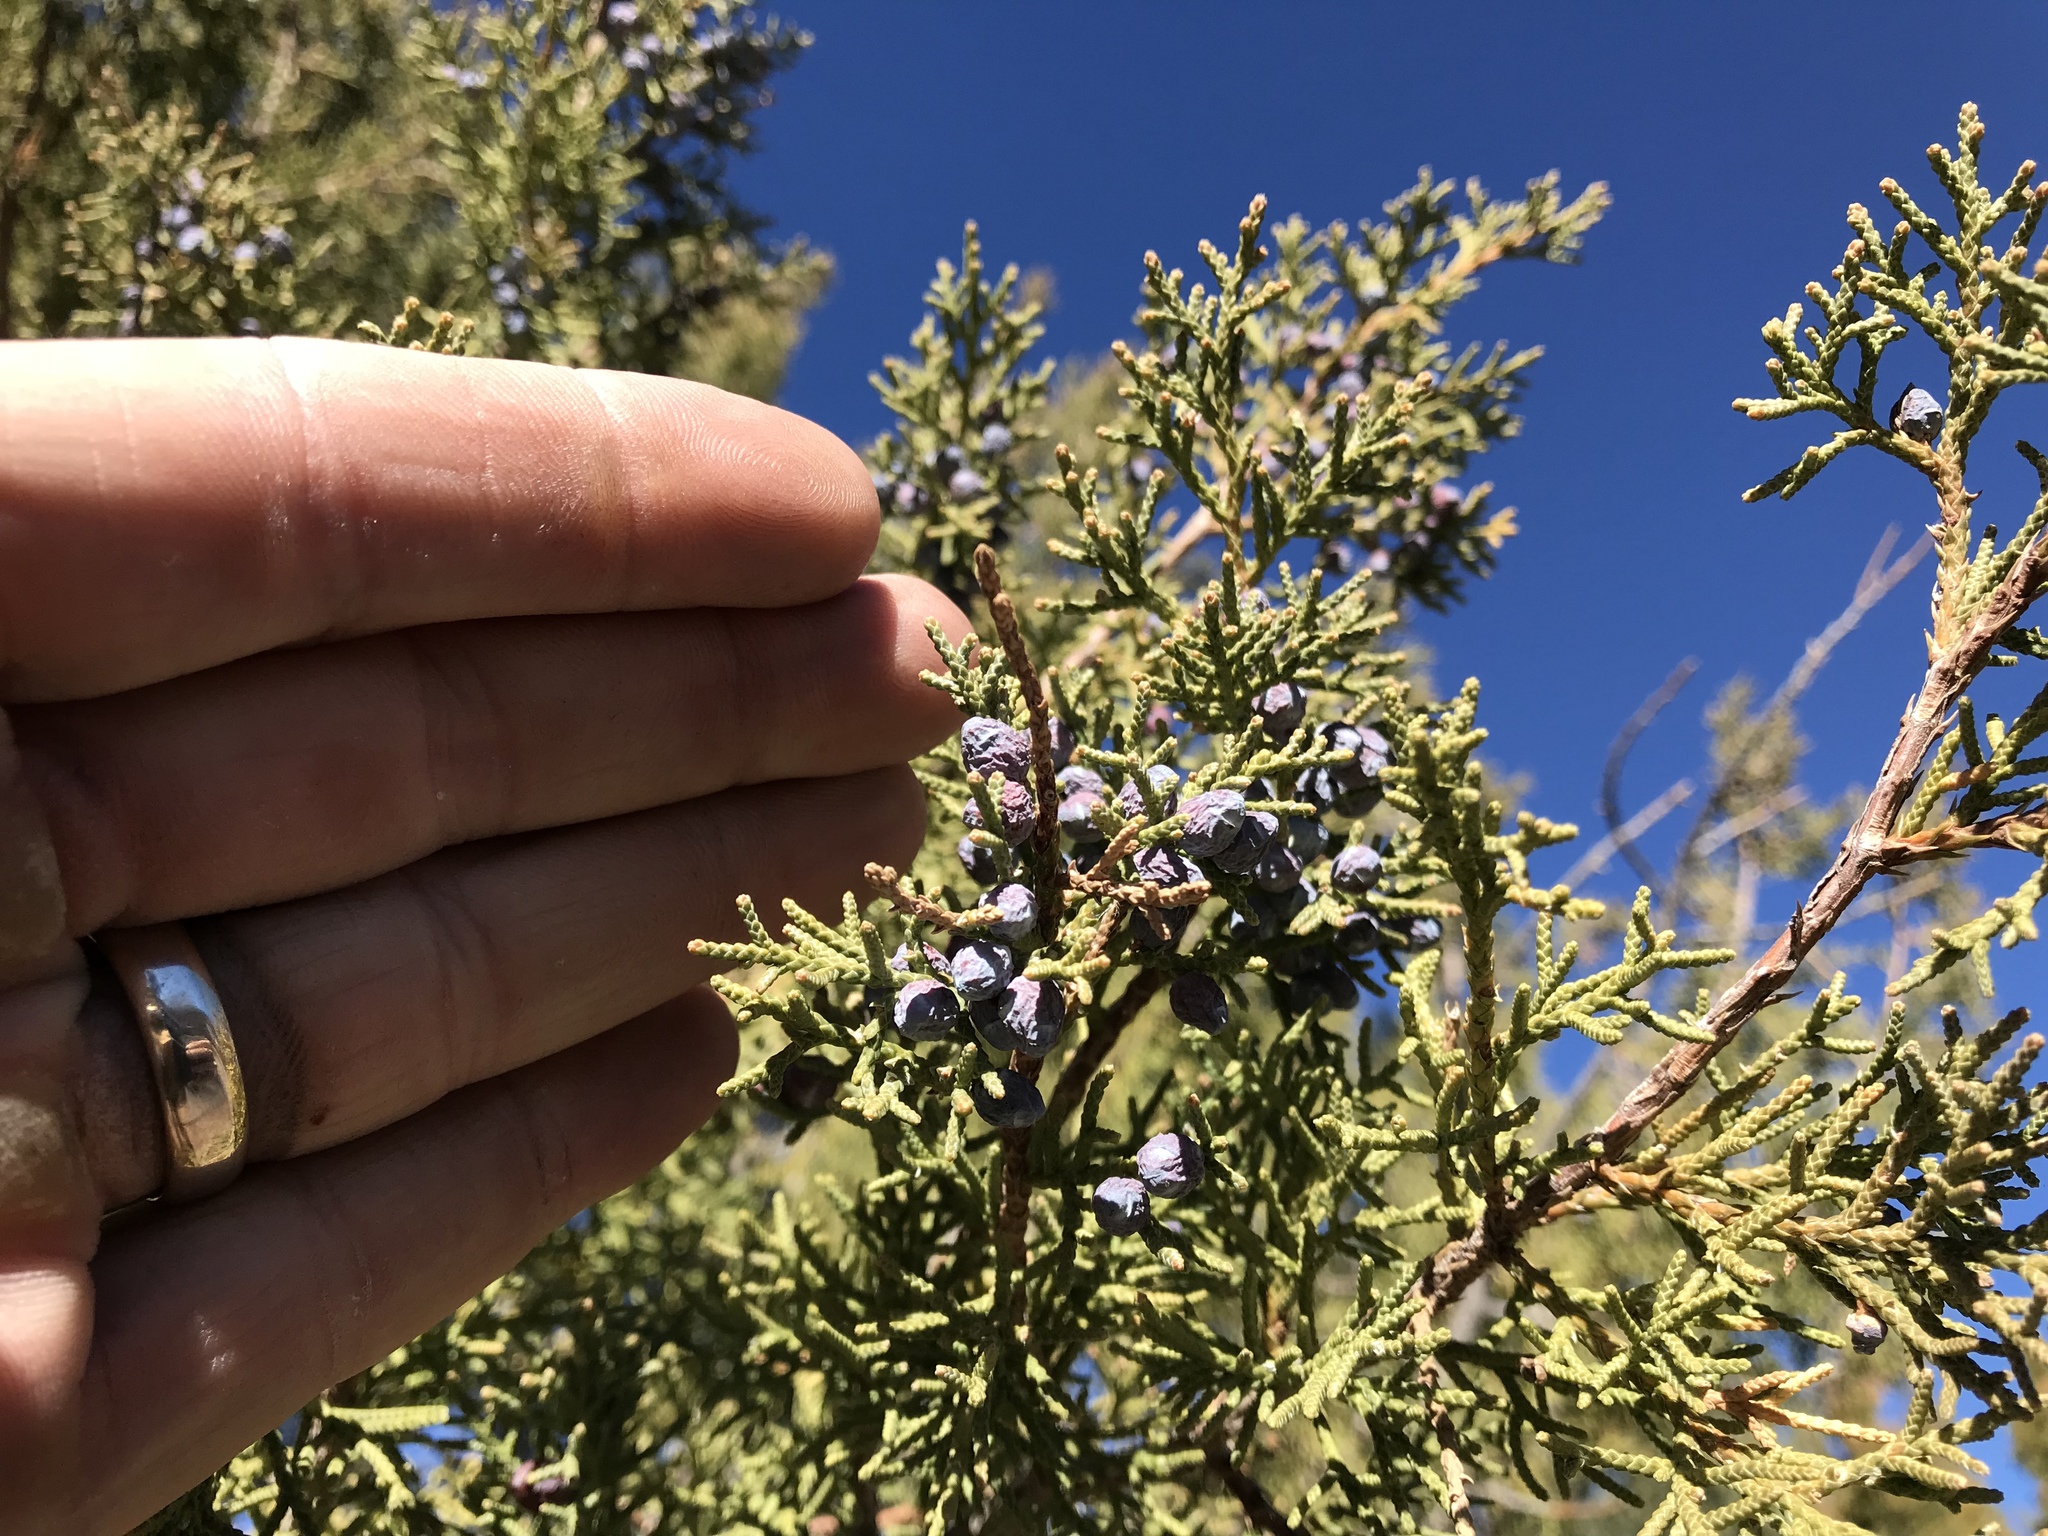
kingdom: Plantae
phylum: Tracheophyta
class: Pinopsida
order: Pinales
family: Cupressaceae
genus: Juniperus
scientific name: Juniperus monosperma
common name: One-seed juniper
